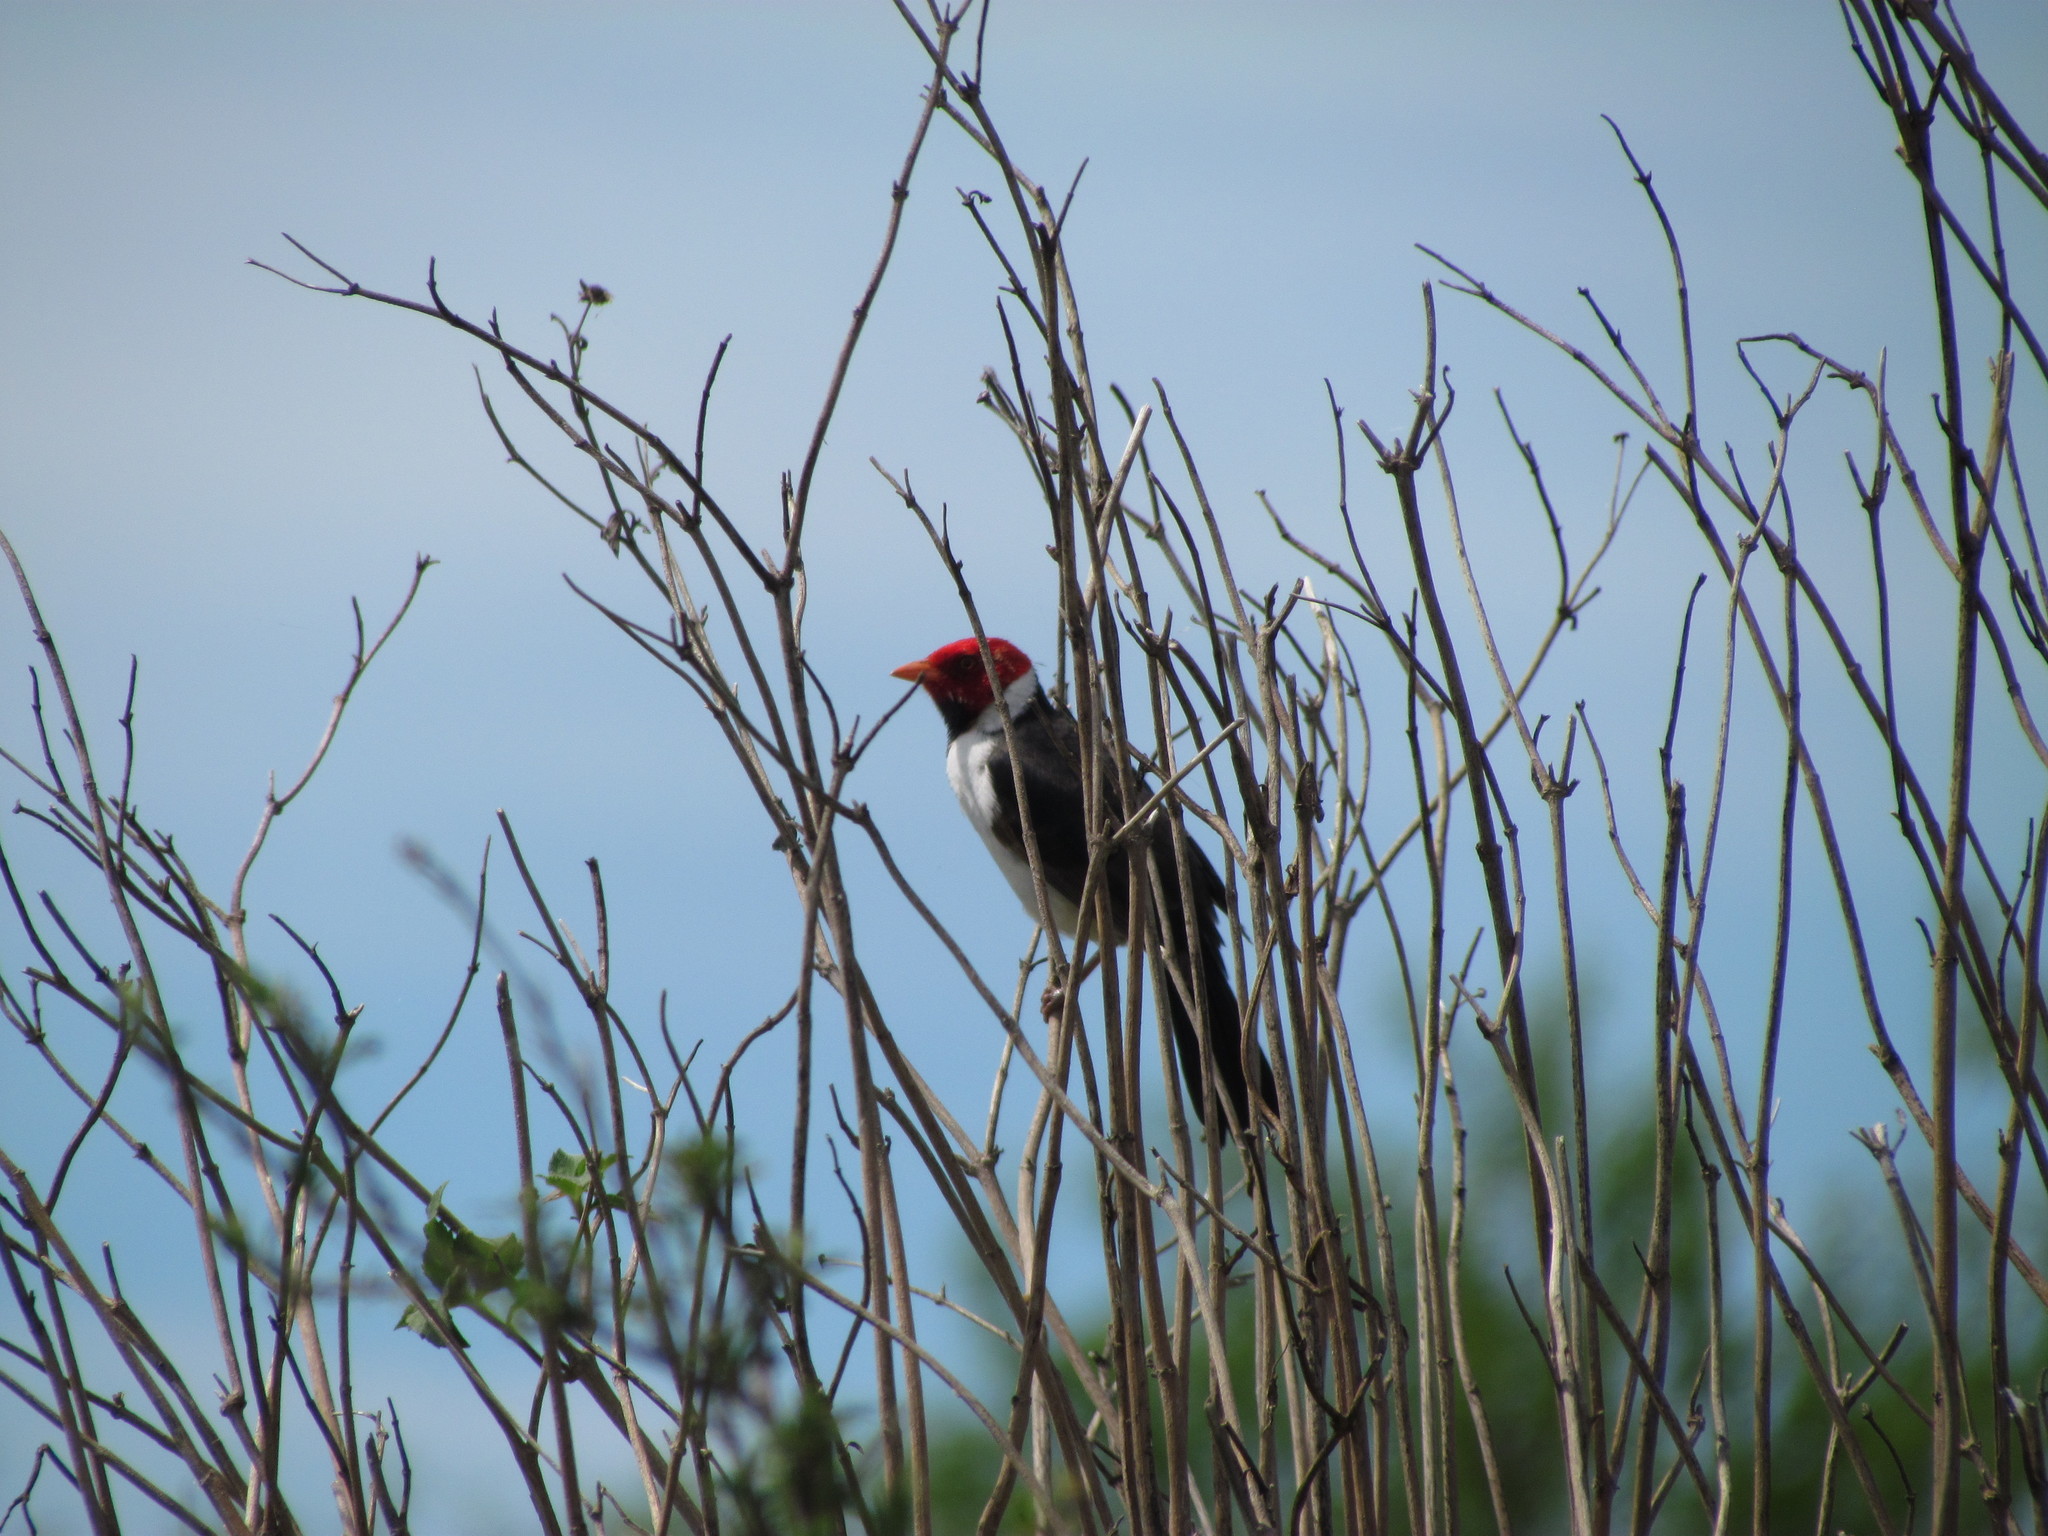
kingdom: Animalia
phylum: Chordata
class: Aves
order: Passeriformes
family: Thraupidae
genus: Paroaria
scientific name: Paroaria capitata
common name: Yellow-billed cardinal
